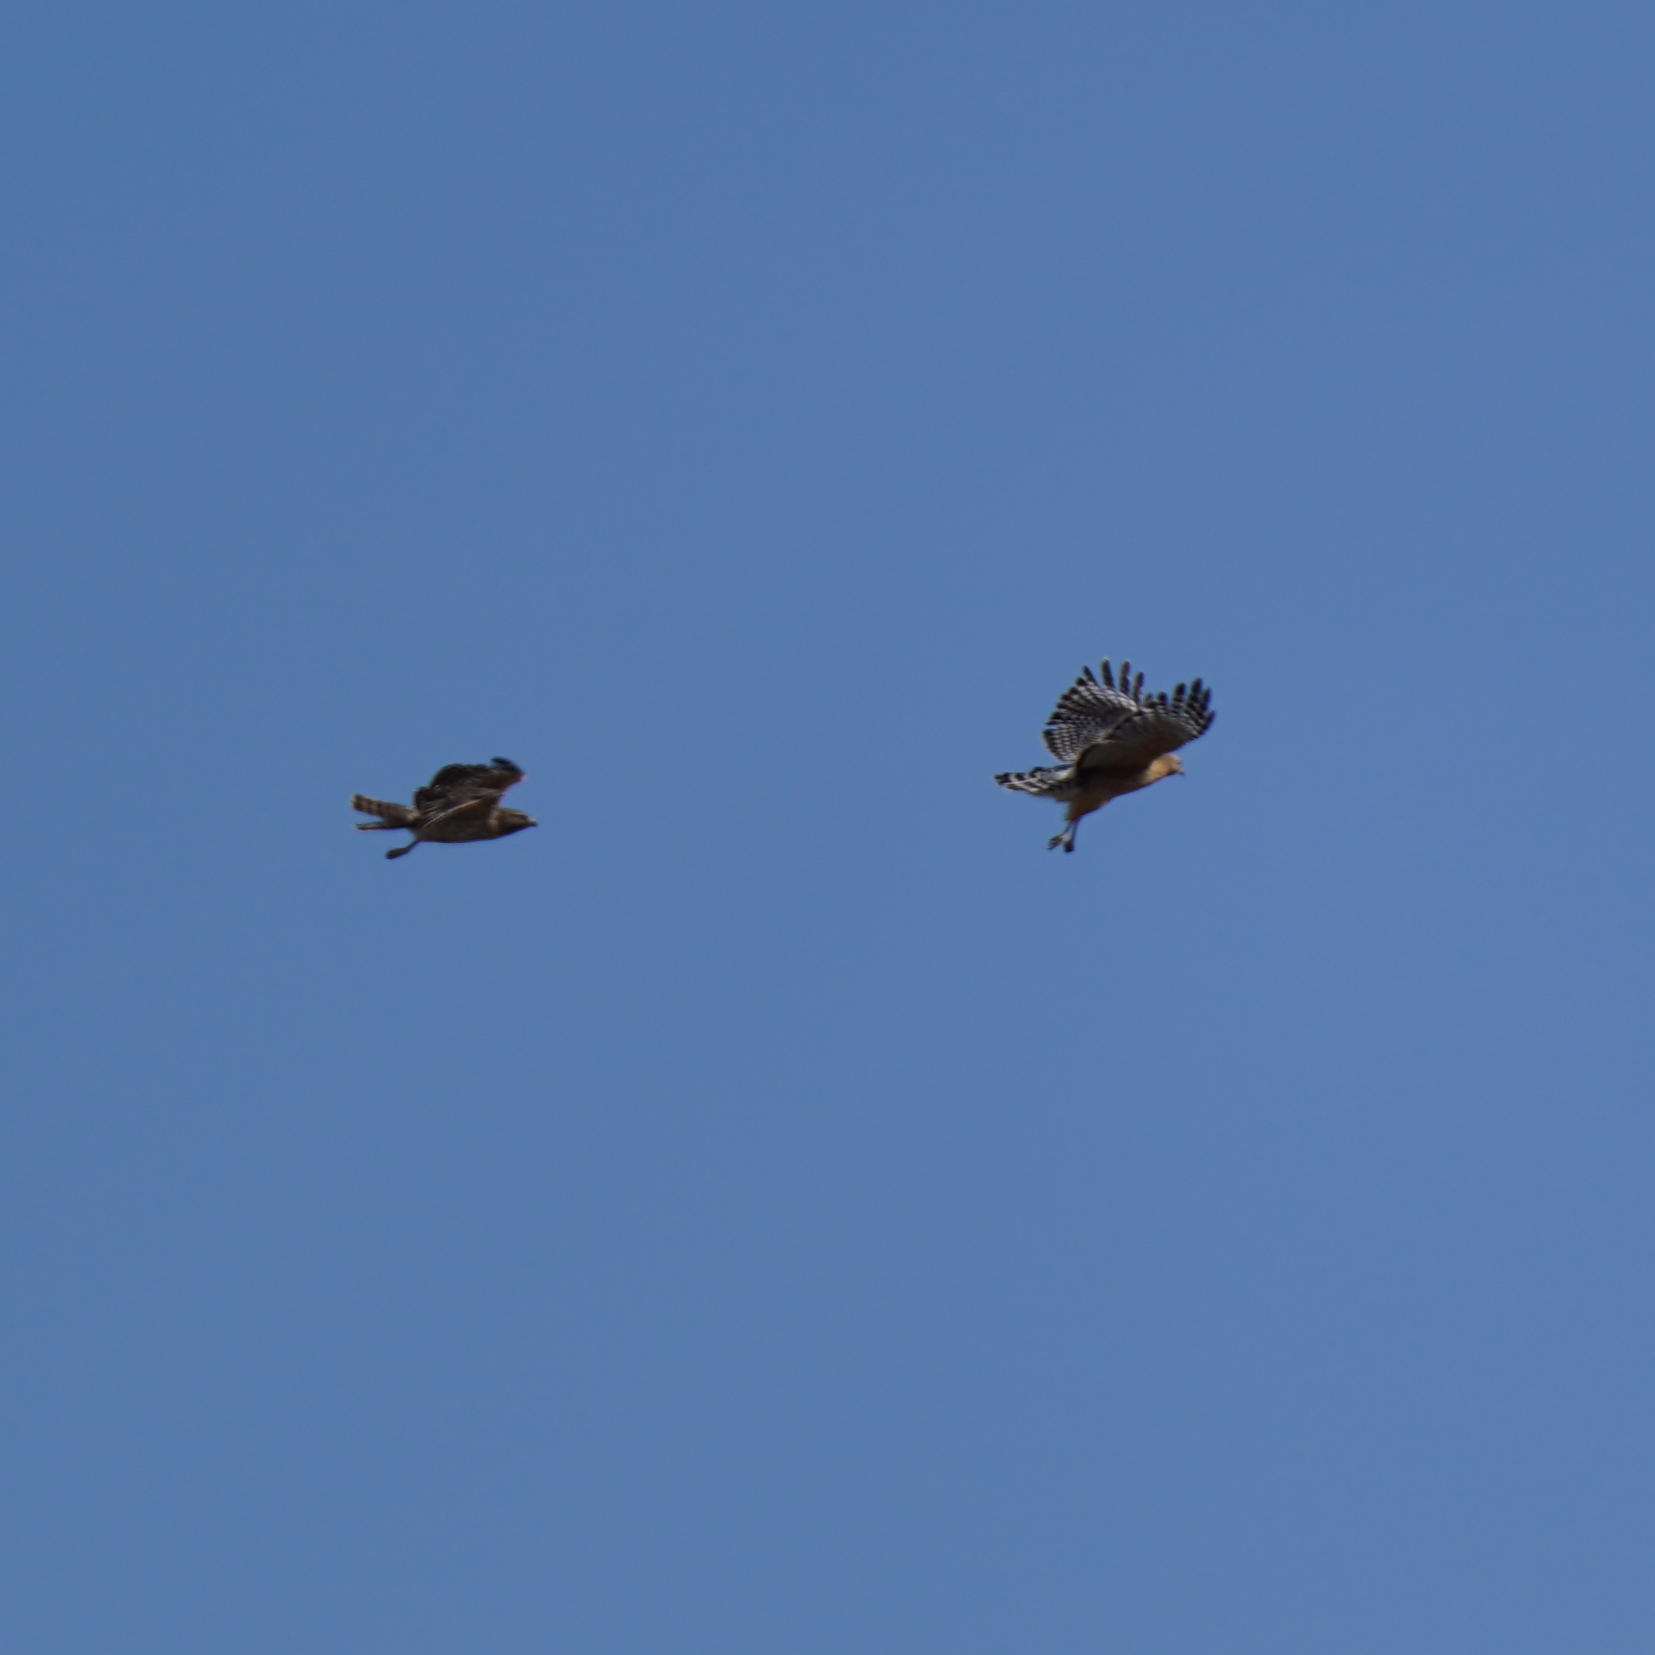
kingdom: Animalia
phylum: Chordata
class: Aves
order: Accipitriformes
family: Accipitridae
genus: Buteo
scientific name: Buteo lineatus
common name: Red-shouldered hawk
